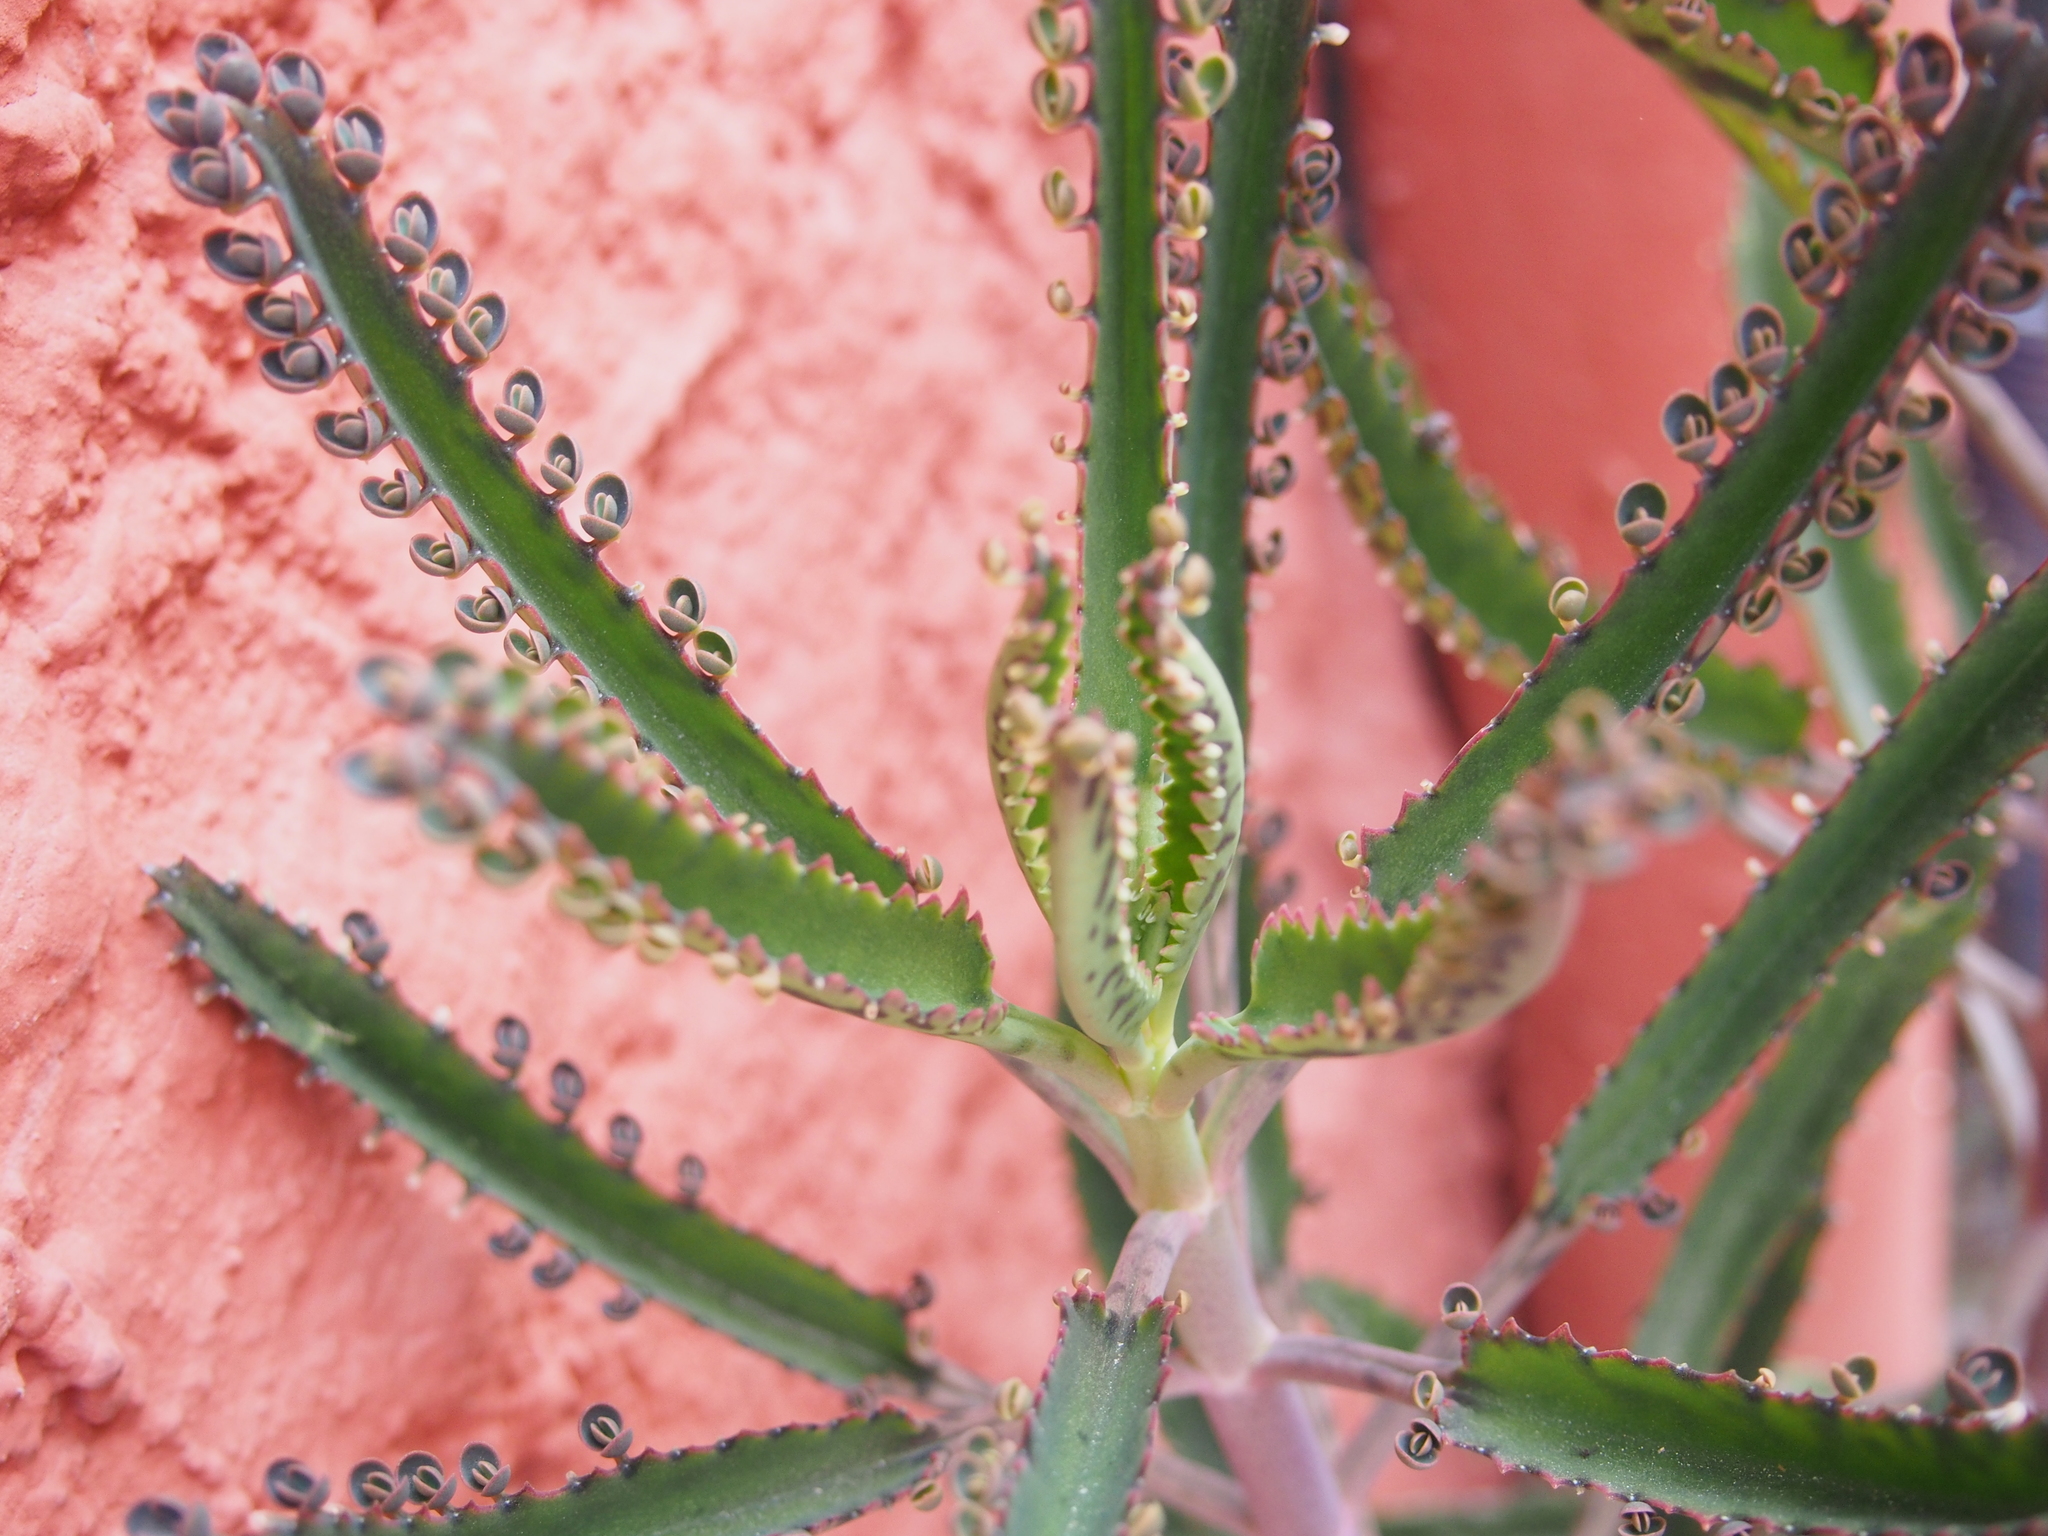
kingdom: Plantae
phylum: Tracheophyta
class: Magnoliopsida
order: Saxifragales
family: Crassulaceae
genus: Kalanchoe
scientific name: Kalanchoe houghtonii
